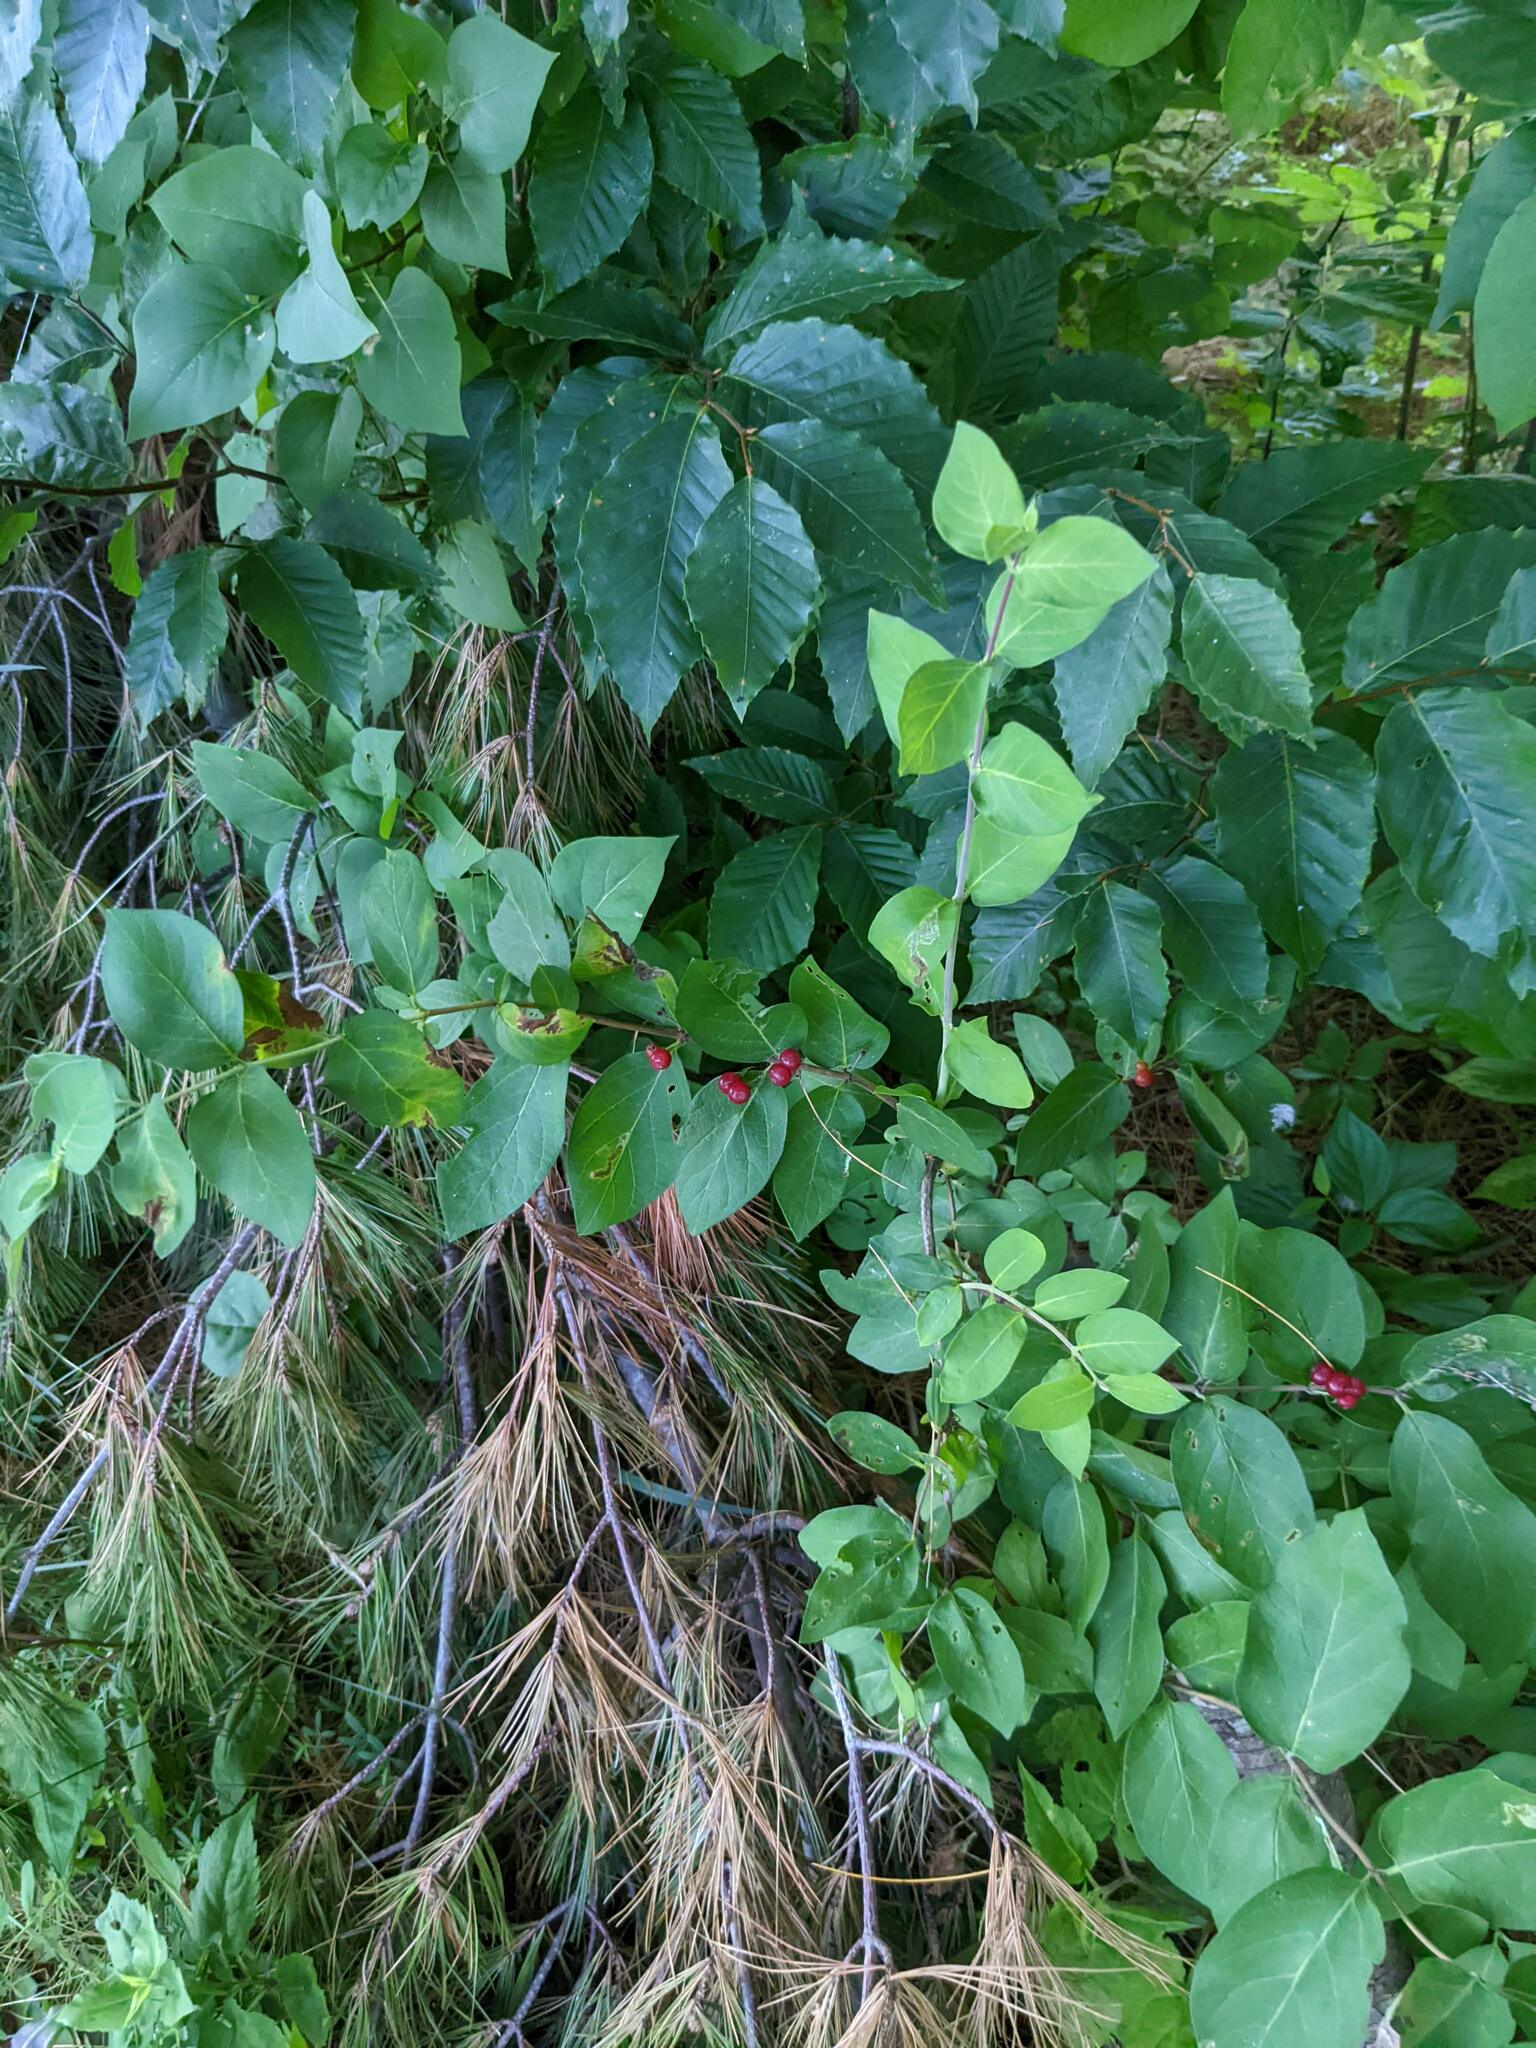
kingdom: Plantae
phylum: Tracheophyta
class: Magnoliopsida
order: Fagales
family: Fagaceae
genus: Fagus
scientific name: Fagus grandifolia
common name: American beech
